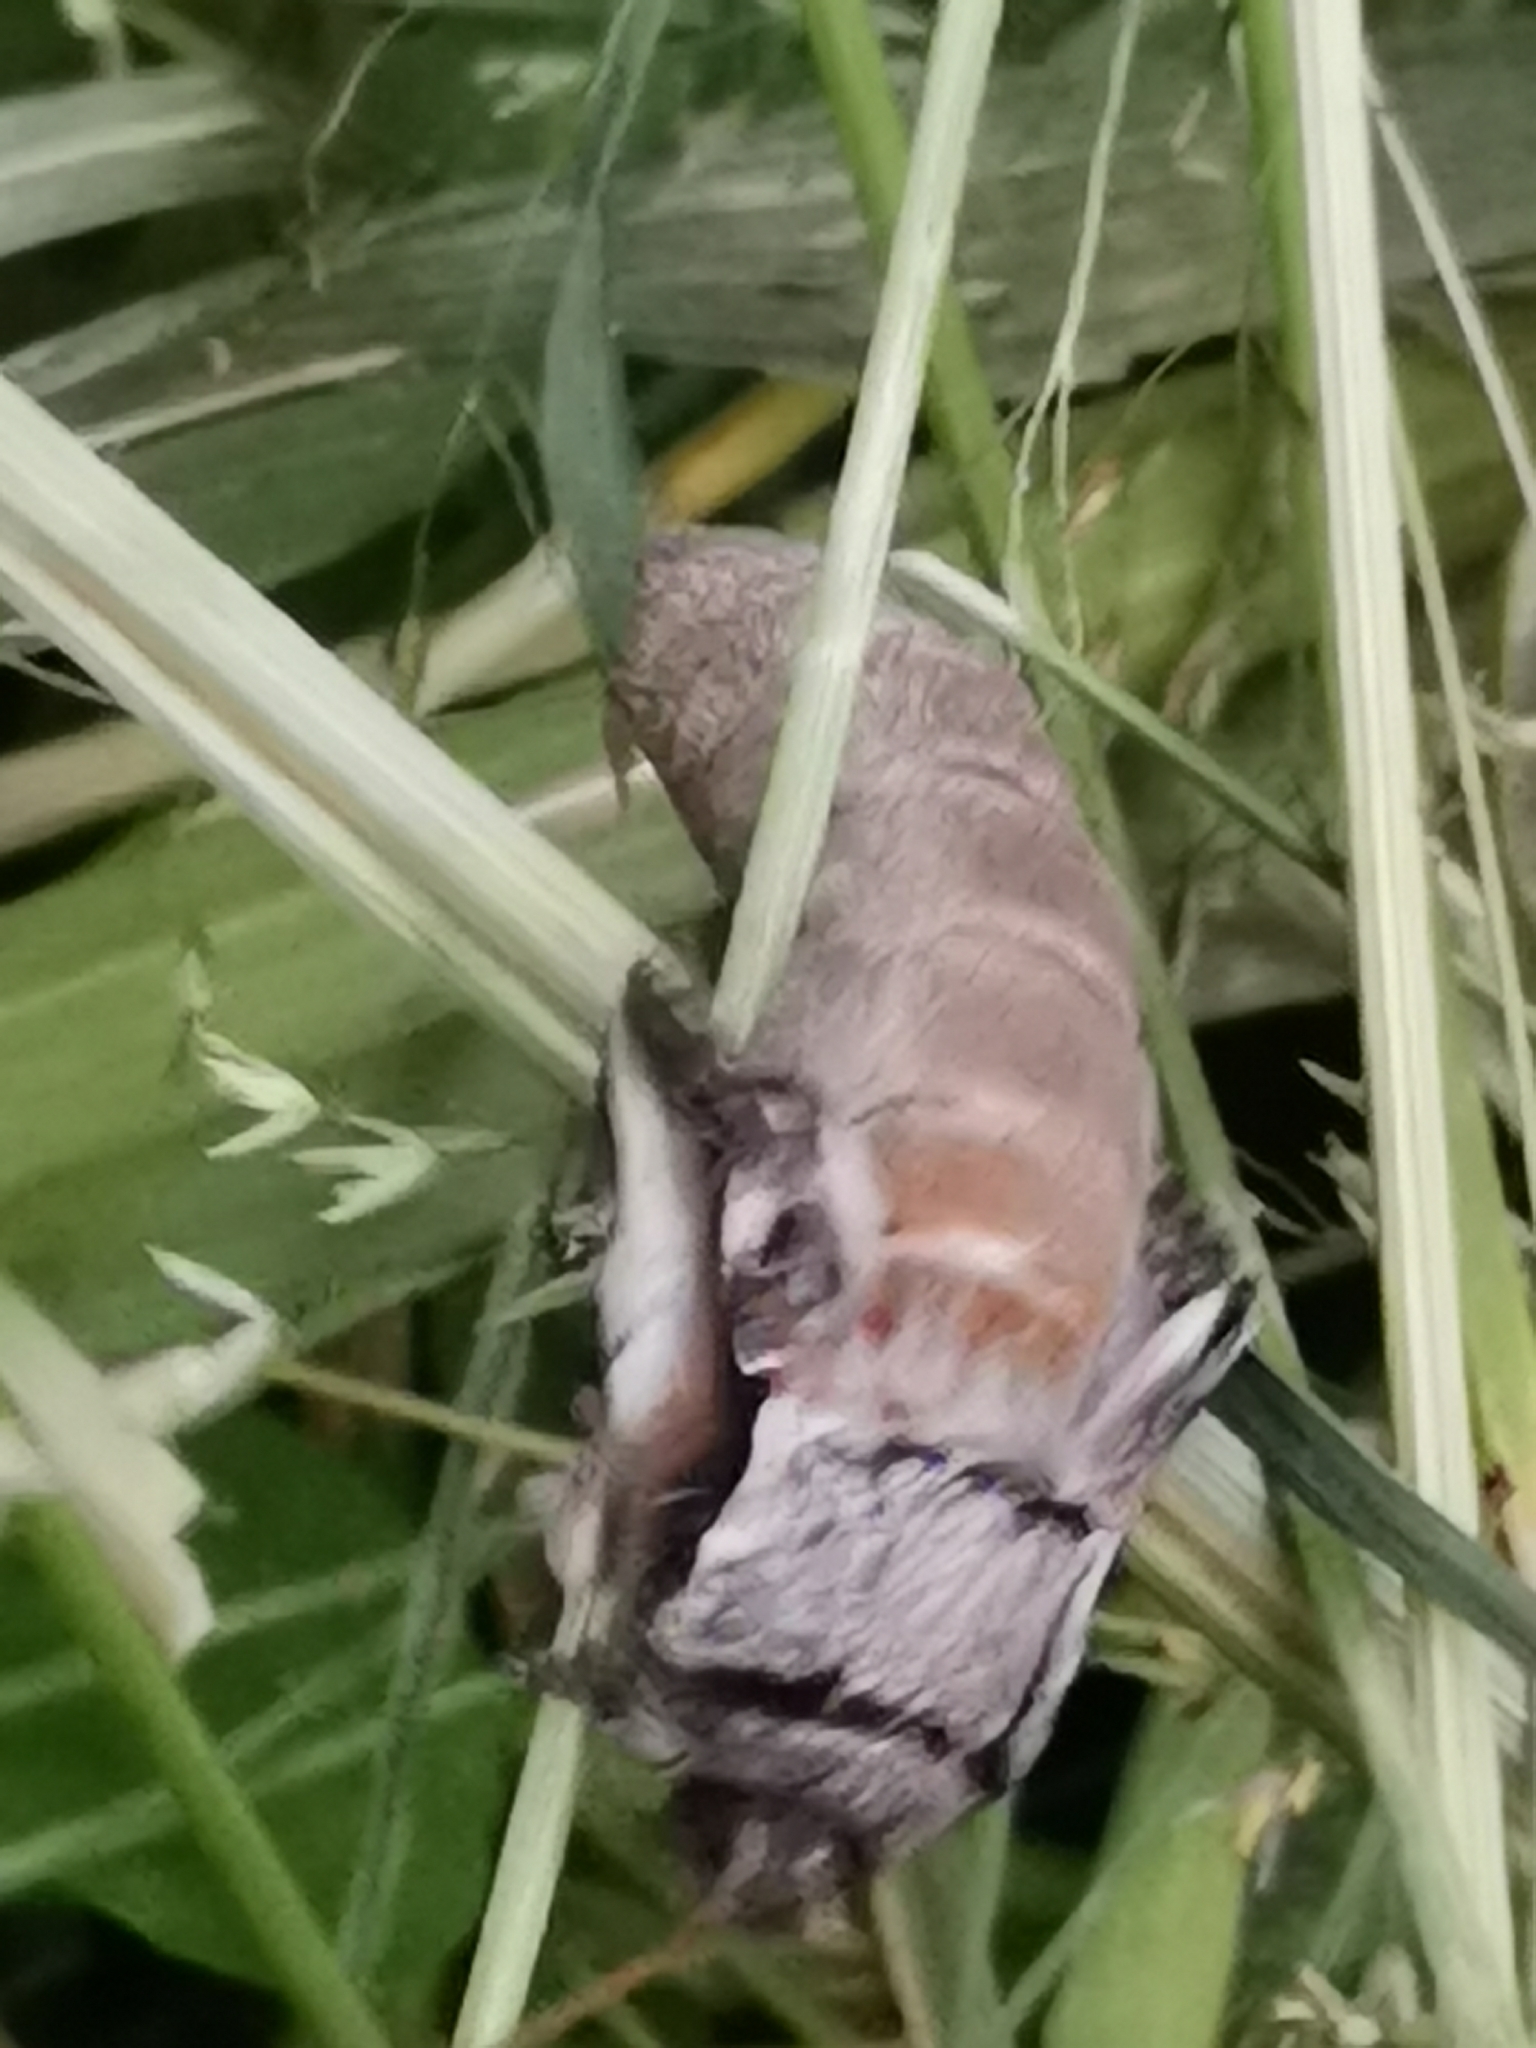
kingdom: Animalia
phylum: Arthropoda
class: Insecta
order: Lepidoptera
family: Notodontidae
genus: Pheosia
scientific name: Pheosia gnoma
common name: Lesser swallow prominent
